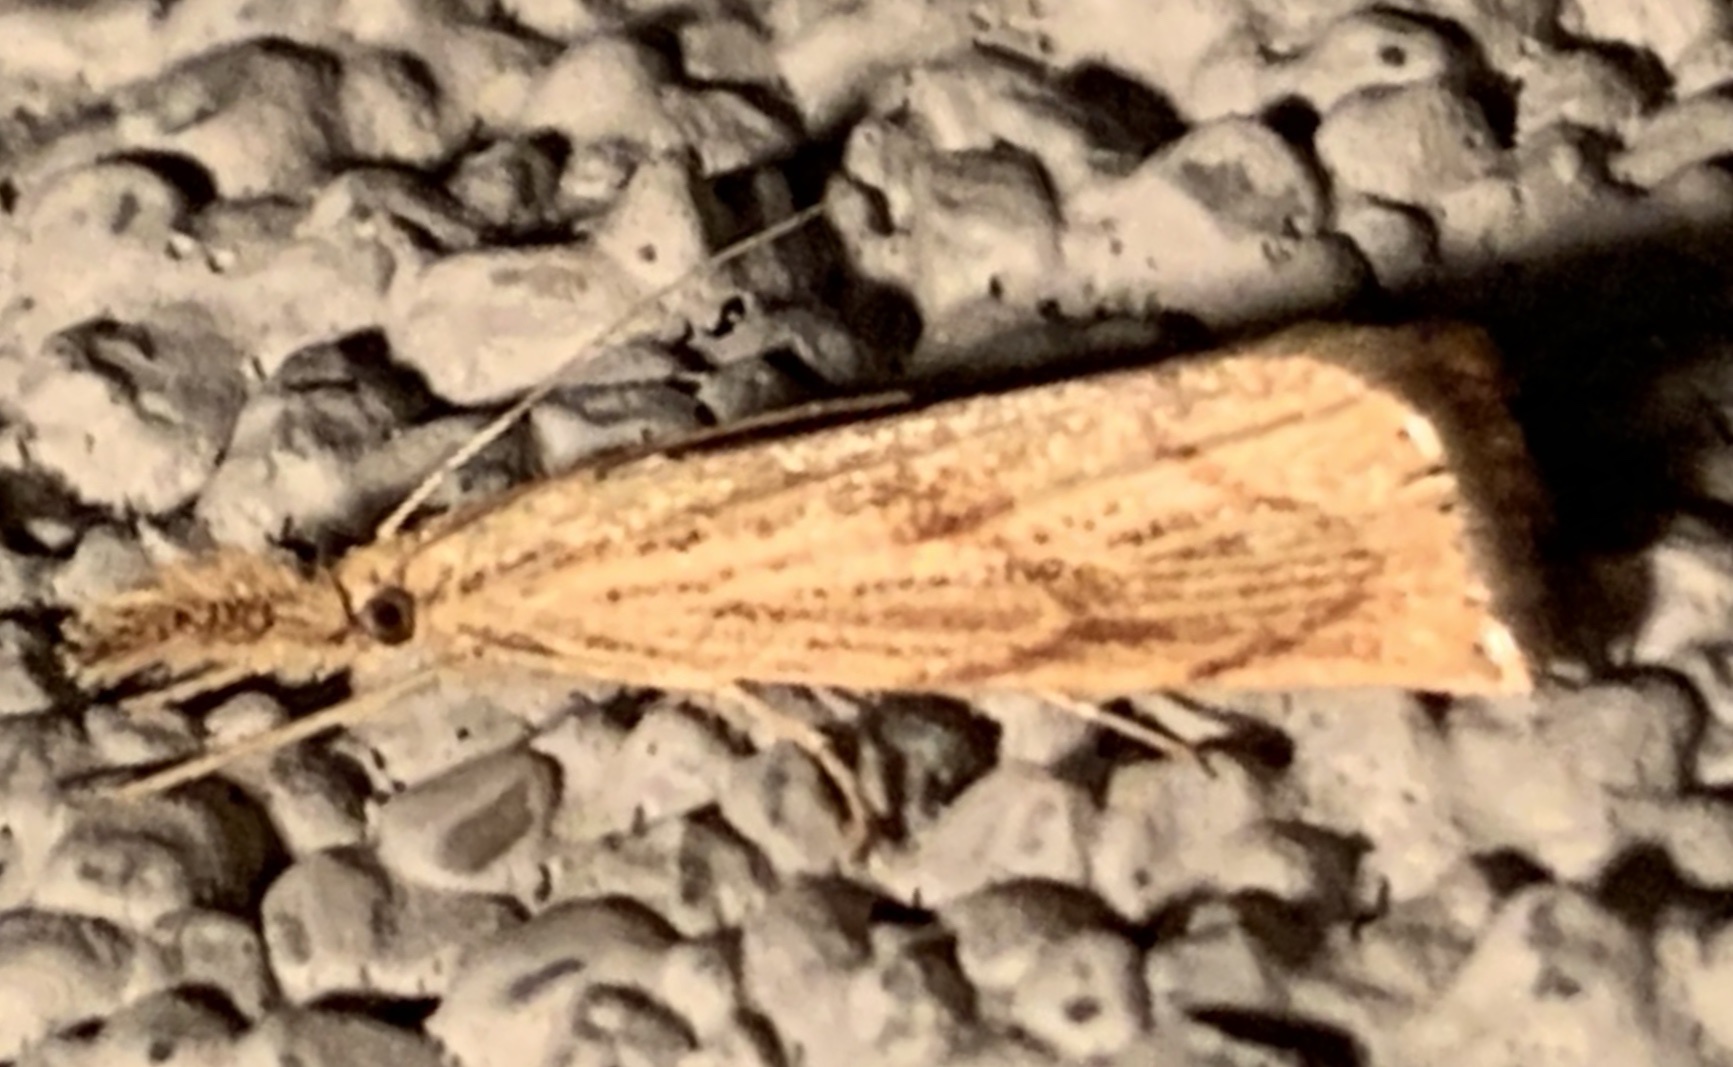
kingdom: Animalia
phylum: Arthropoda
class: Insecta
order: Lepidoptera
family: Crambidae
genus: Agriphila
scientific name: Agriphila ruricolellus
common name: Lesser vagabond sod webworm
